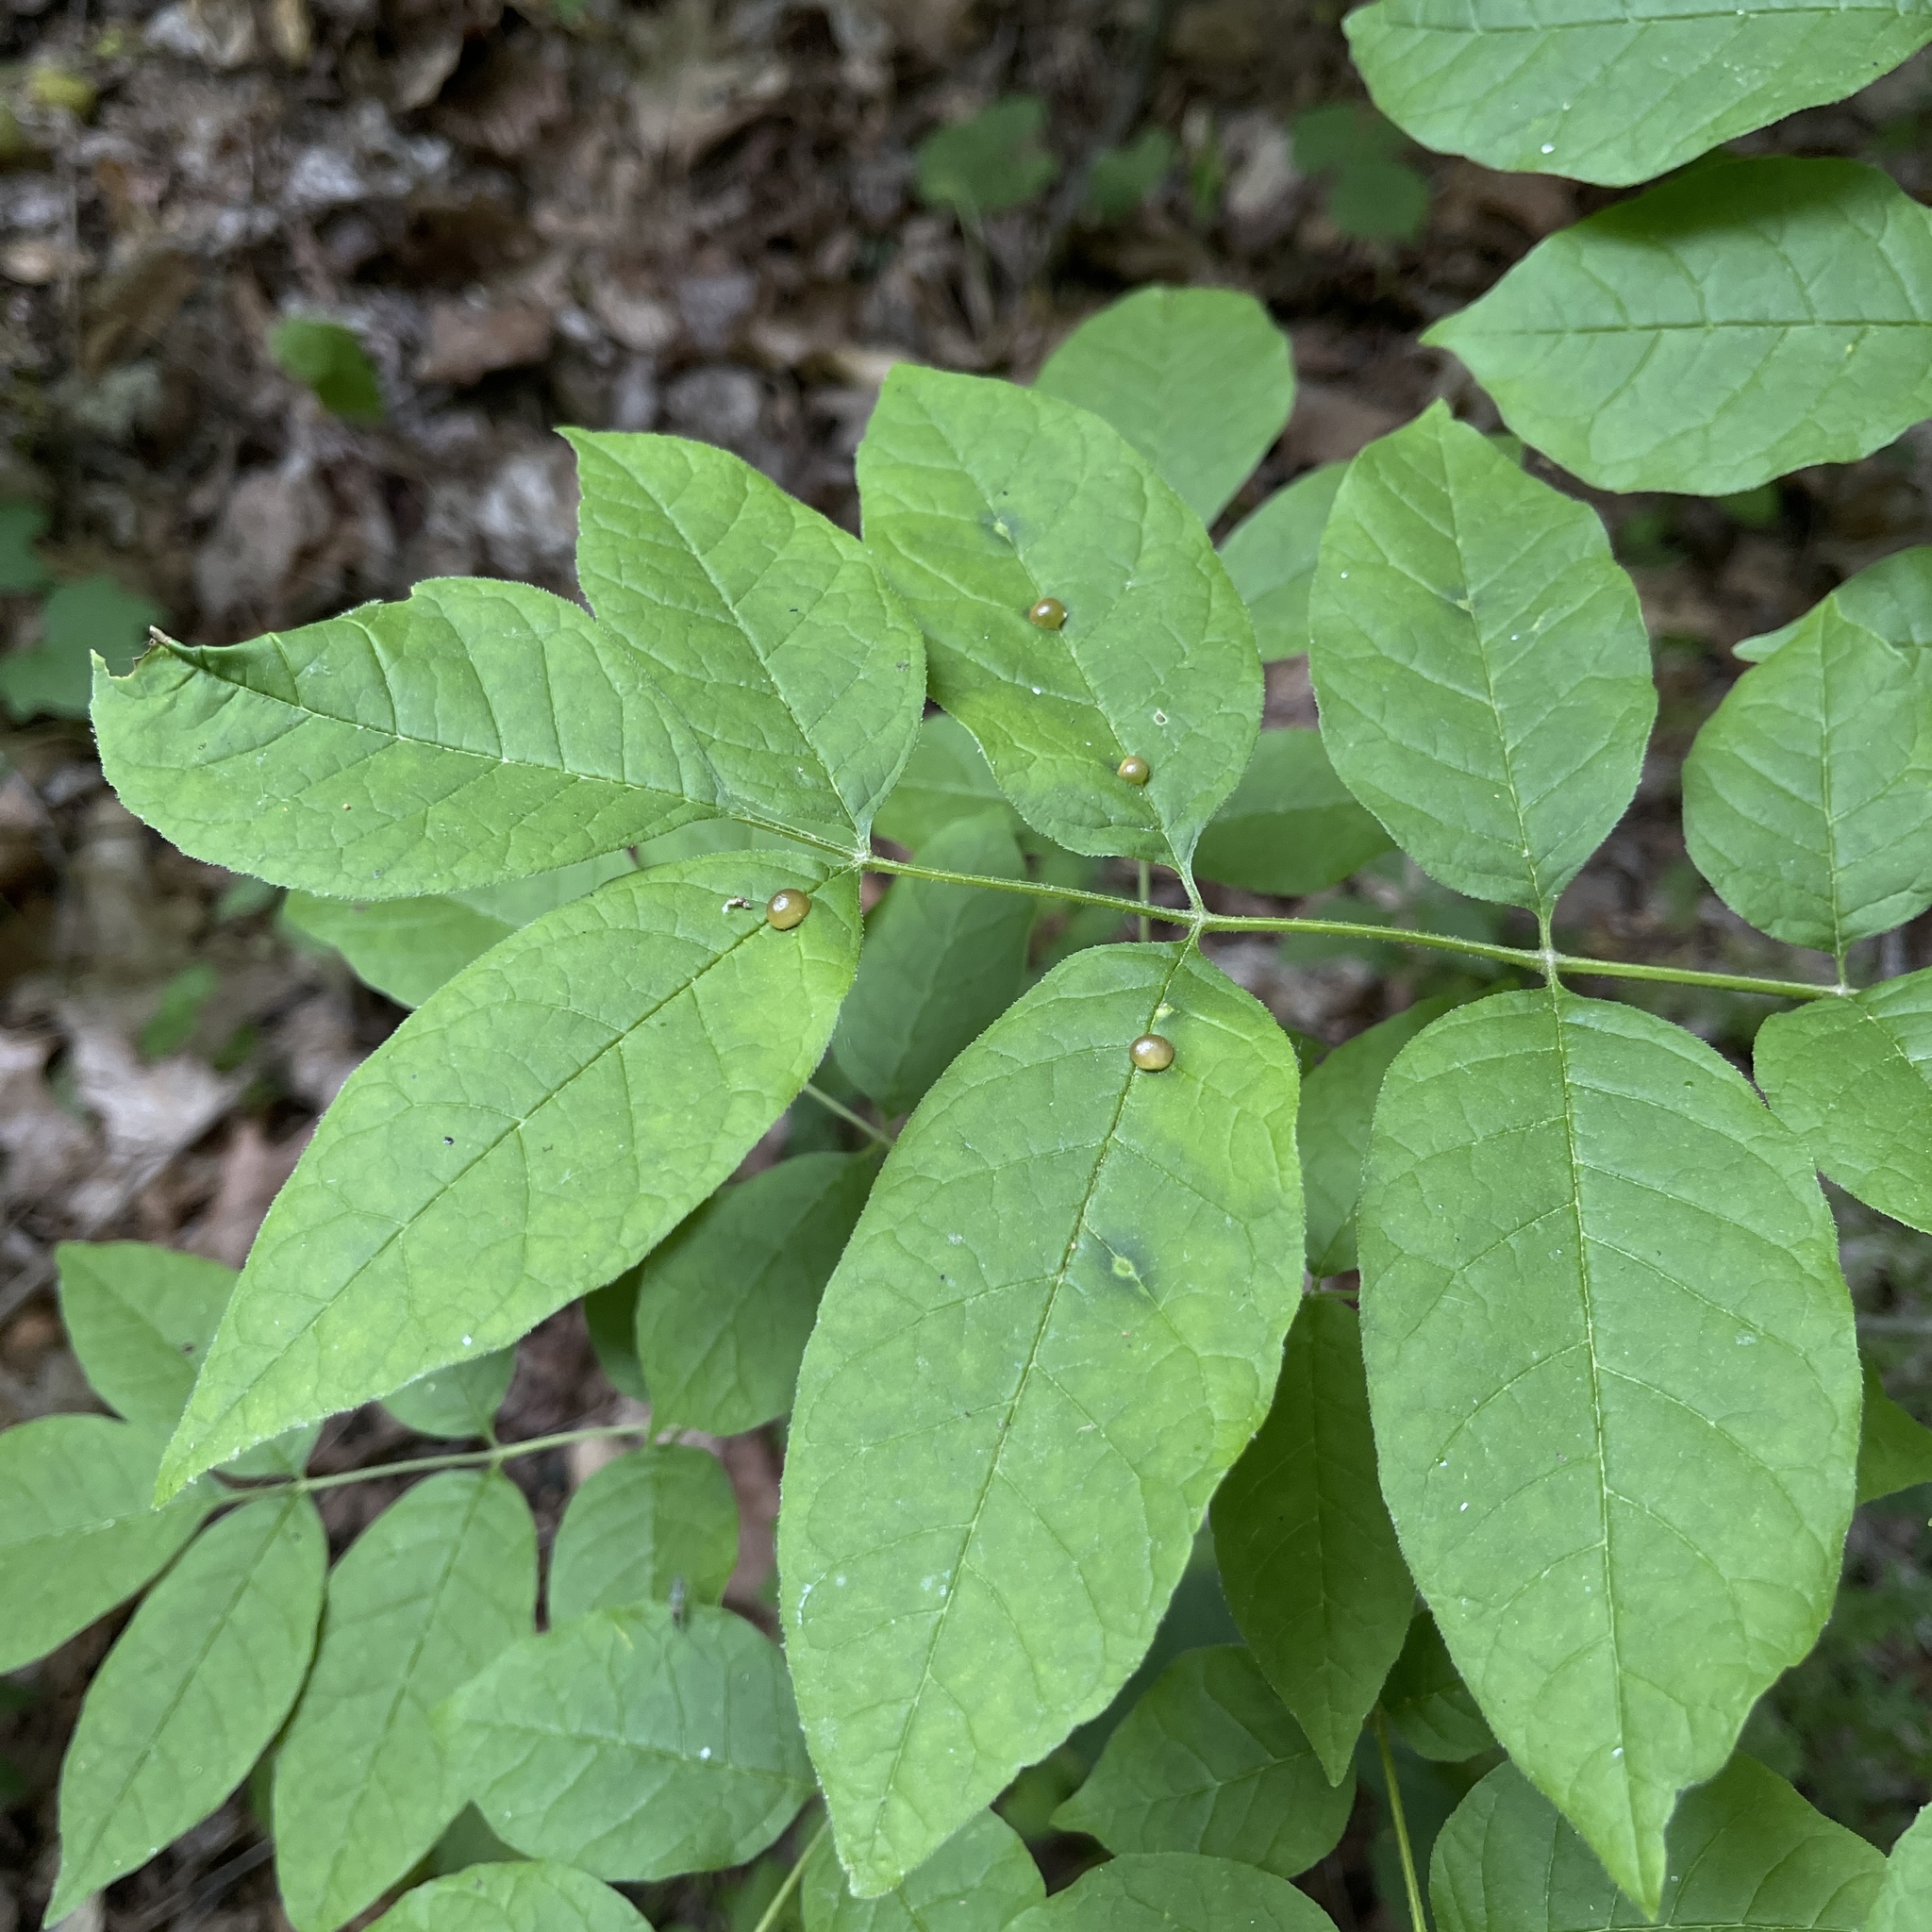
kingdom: Animalia
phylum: Arthropoda
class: Insecta
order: Diptera
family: Cecidomyiidae
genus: Dasineura
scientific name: Dasineura pellex
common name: Ash bullet gall midge
